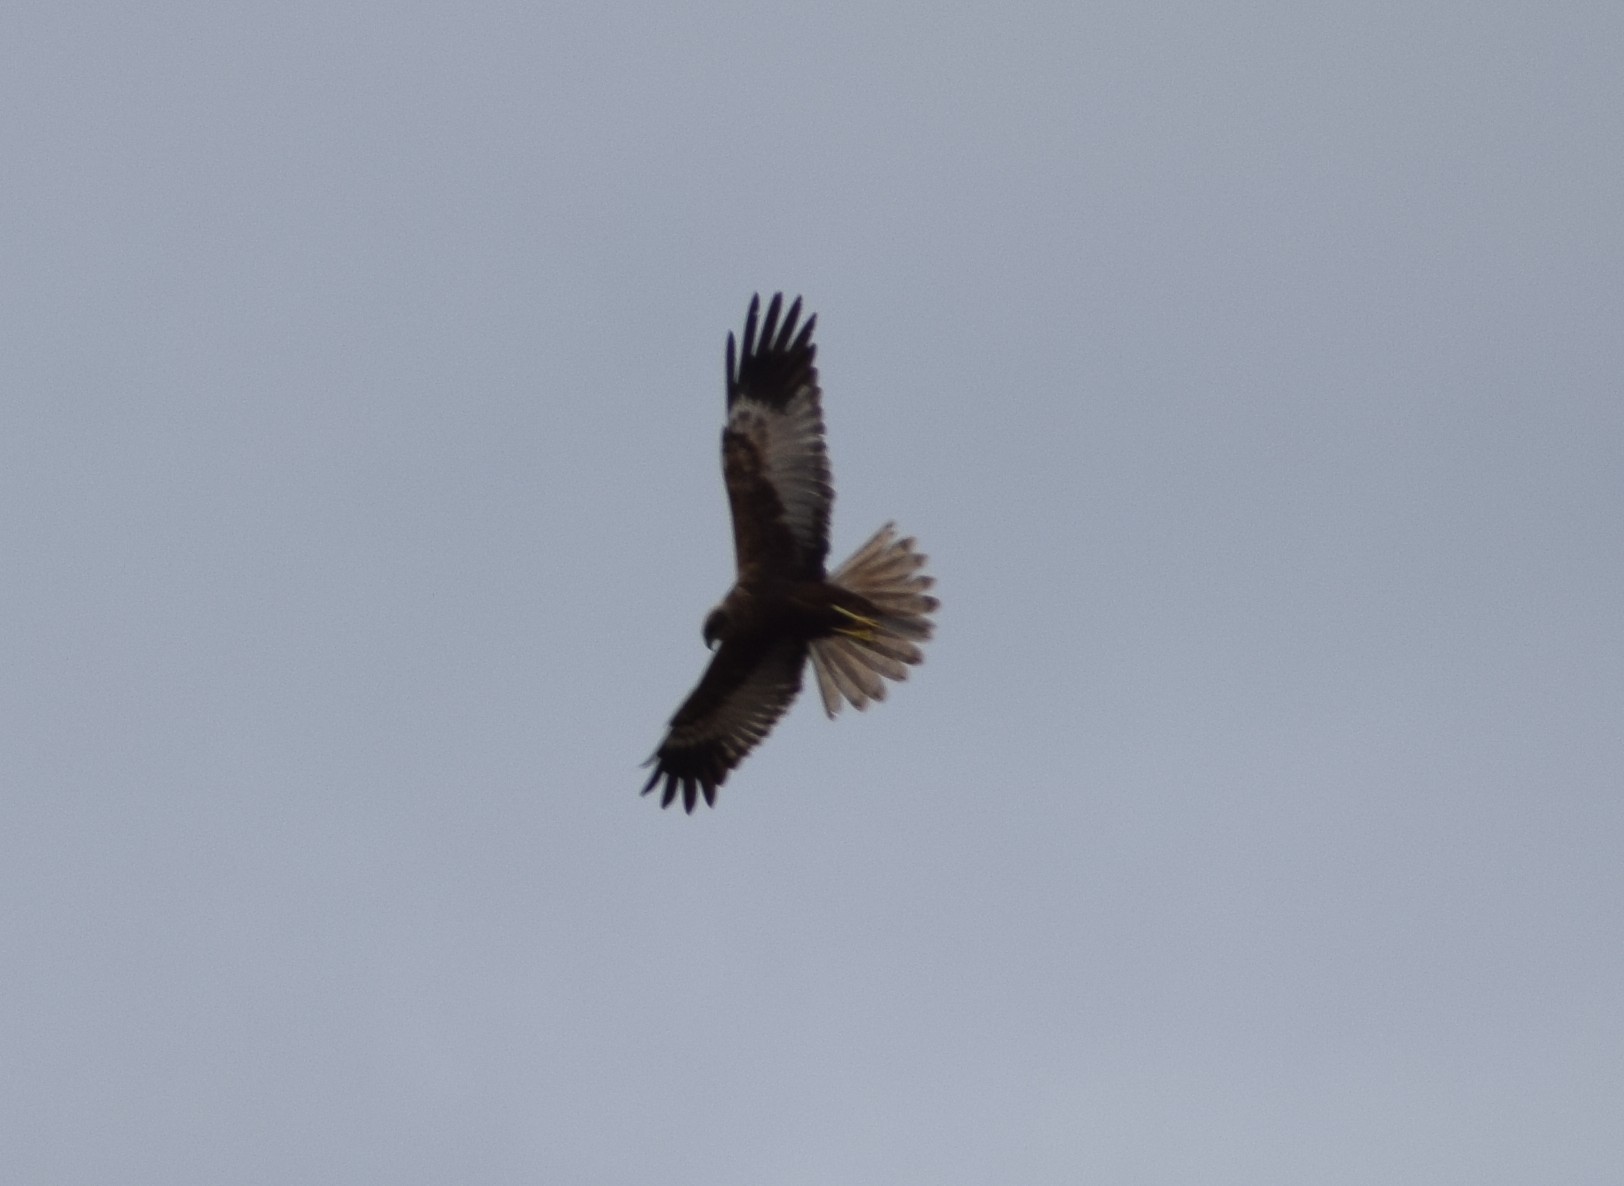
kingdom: Animalia
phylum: Chordata
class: Aves
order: Accipitriformes
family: Accipitridae
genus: Circus
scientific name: Circus aeruginosus
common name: Western marsh harrier
